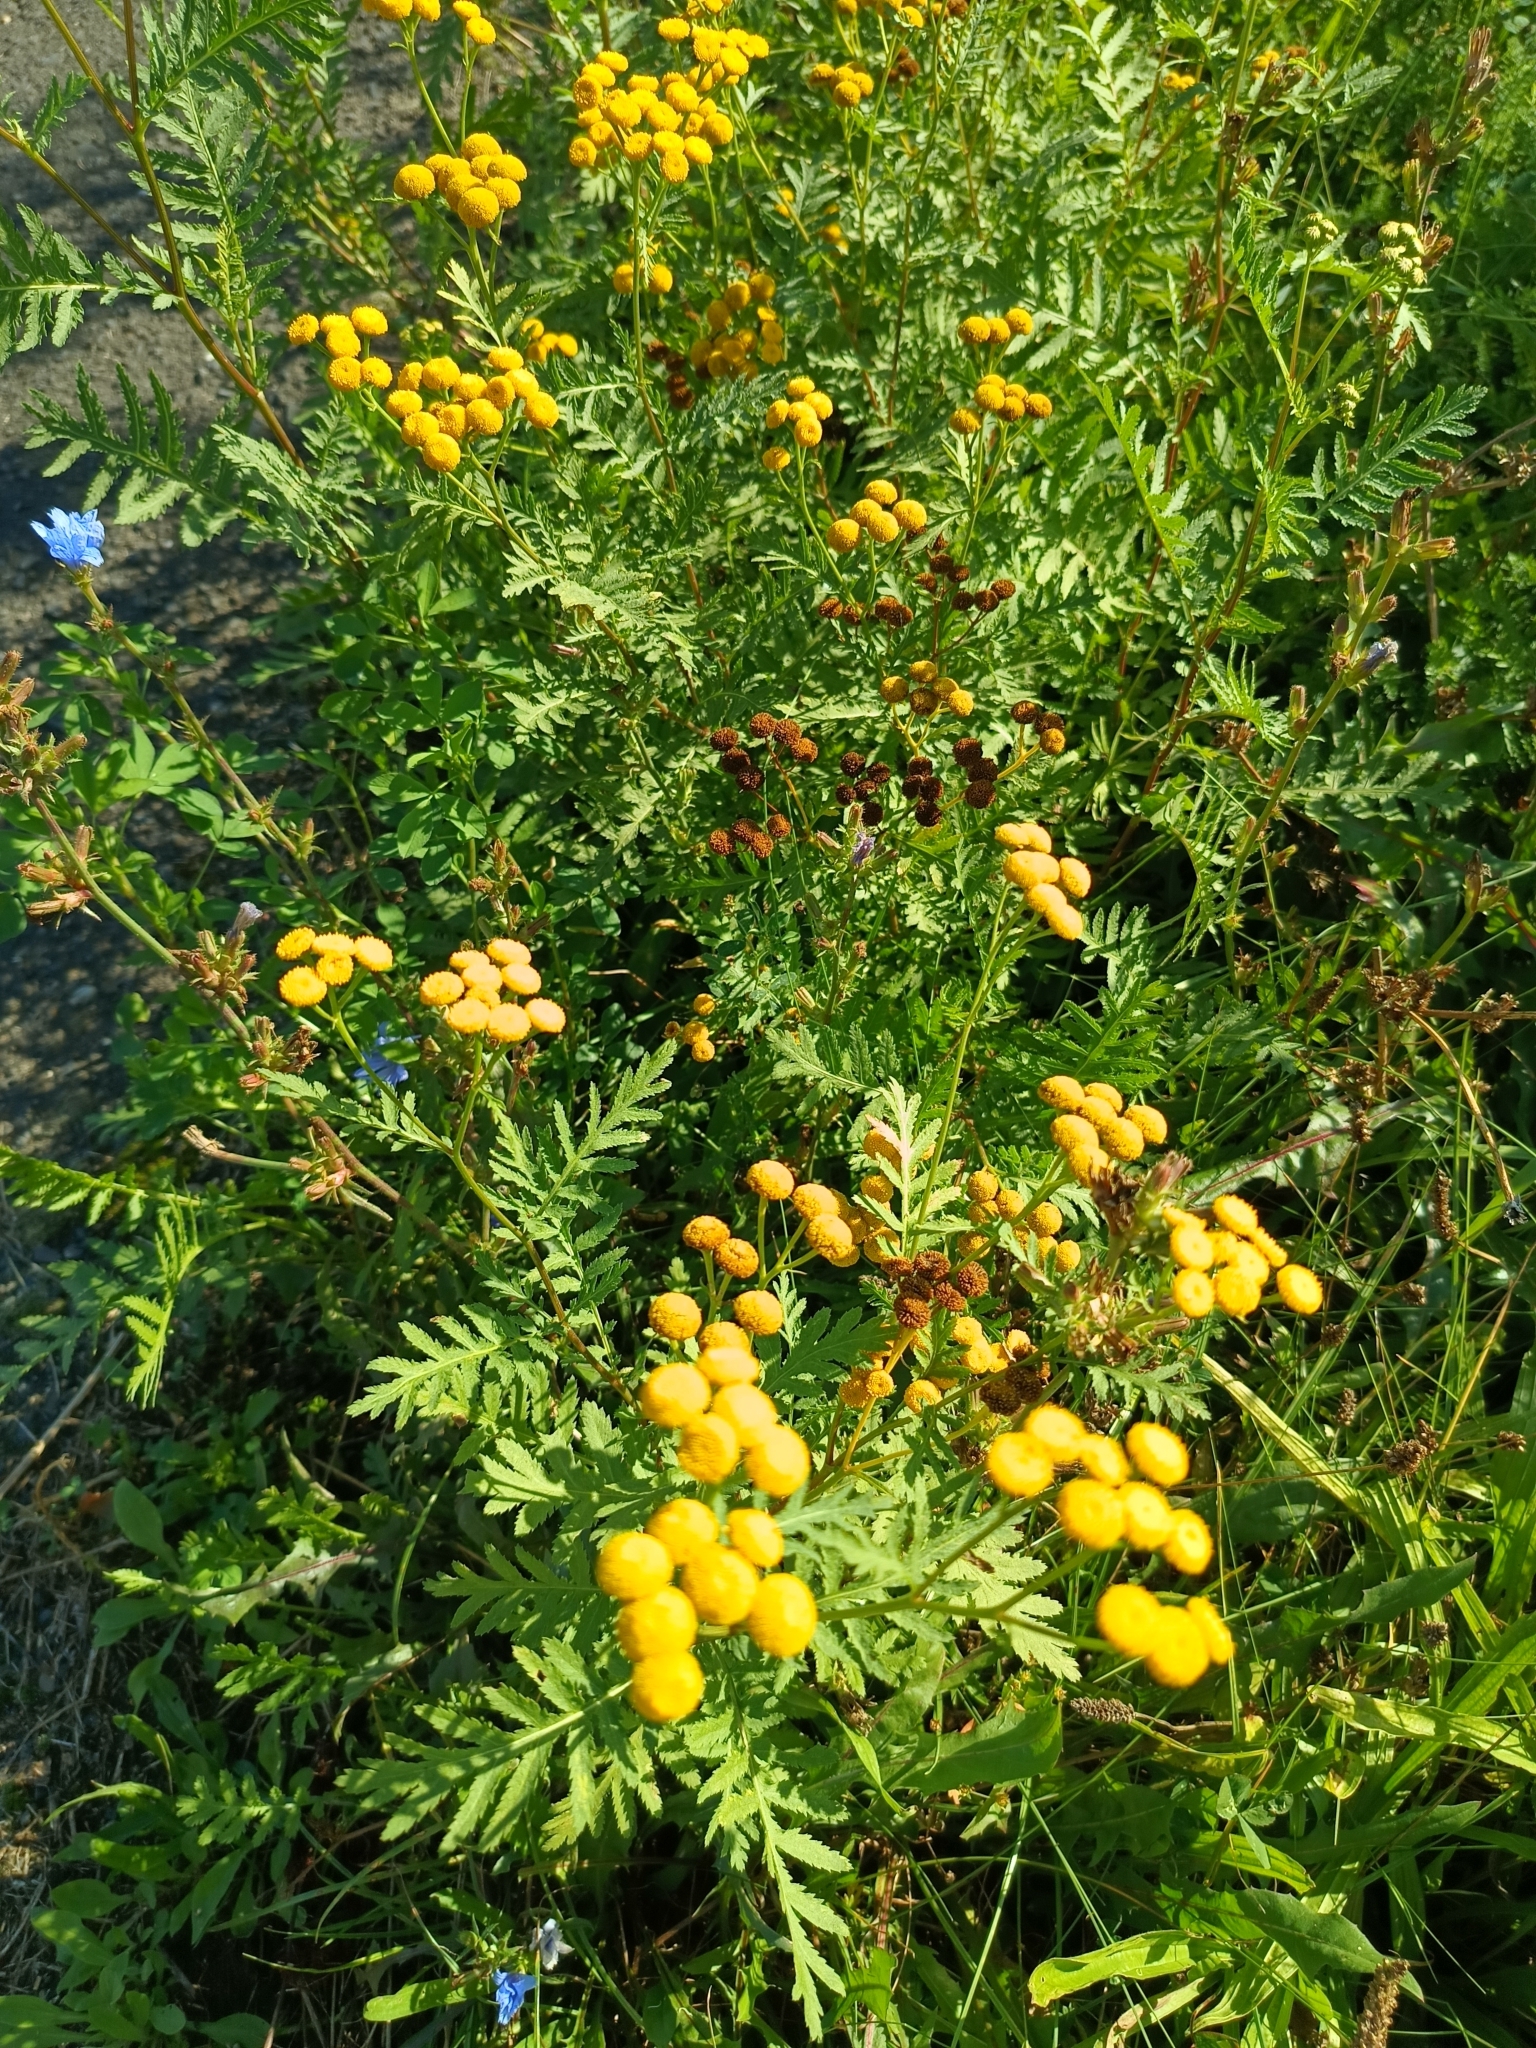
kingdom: Plantae
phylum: Tracheophyta
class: Magnoliopsida
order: Asterales
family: Asteraceae
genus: Tanacetum
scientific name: Tanacetum vulgare
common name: Common tansy
